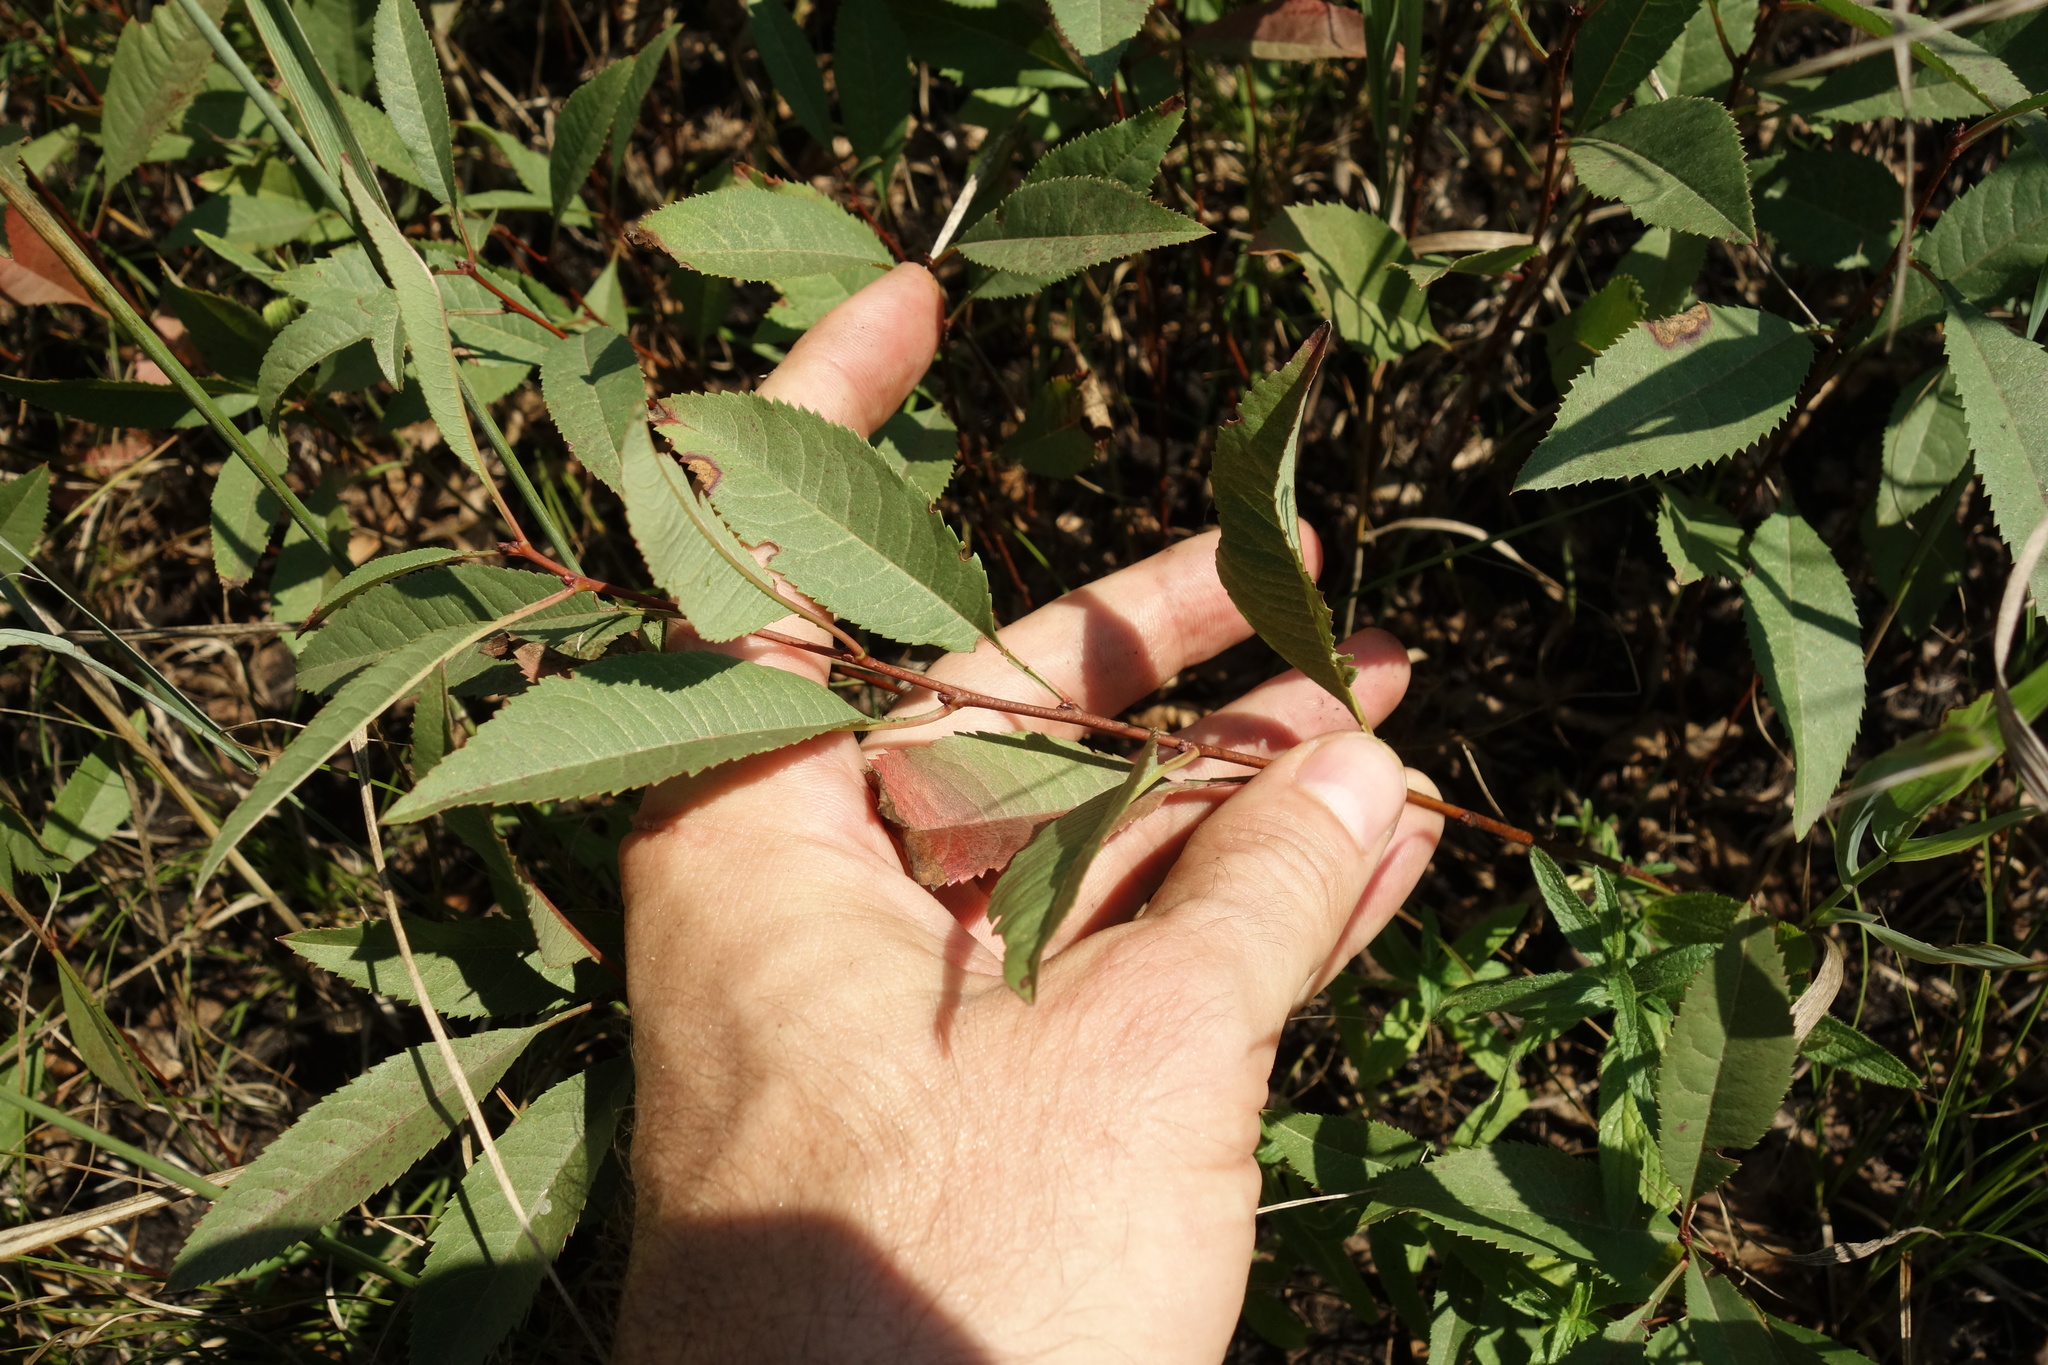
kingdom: Plantae
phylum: Tracheophyta
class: Magnoliopsida
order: Rosales
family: Rosaceae
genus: Prunus
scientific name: Prunus tenella
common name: Dwarf russian almond
